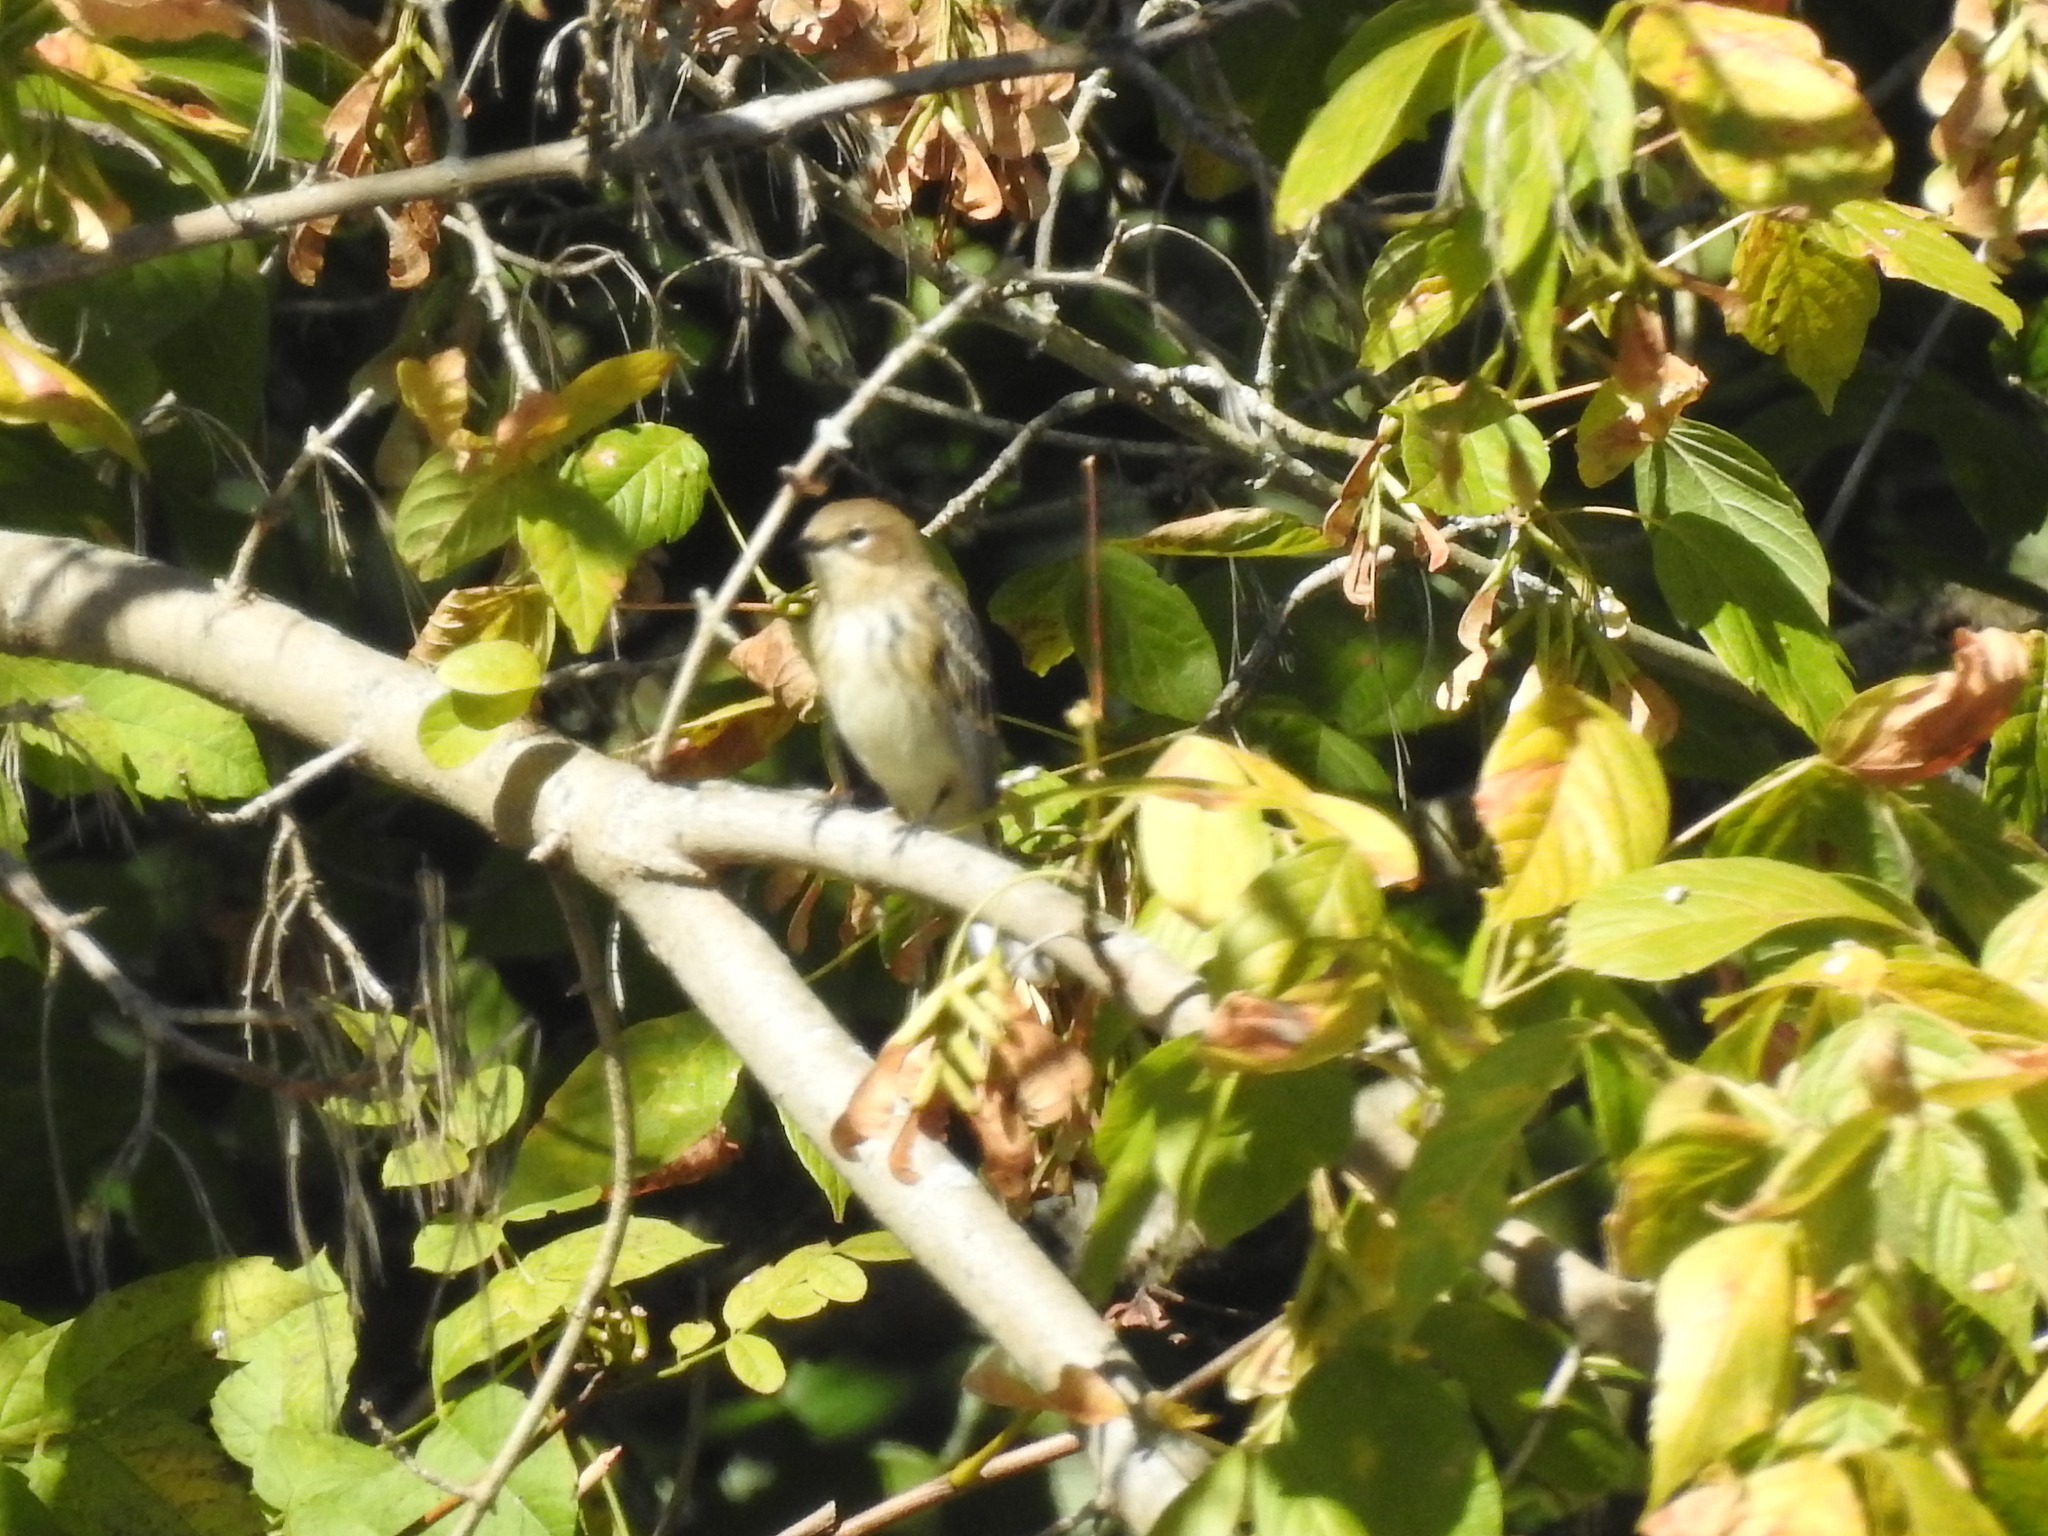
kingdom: Animalia
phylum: Chordata
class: Aves
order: Passeriformes
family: Parulidae
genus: Setophaga
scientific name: Setophaga coronata
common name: Myrtle warbler
